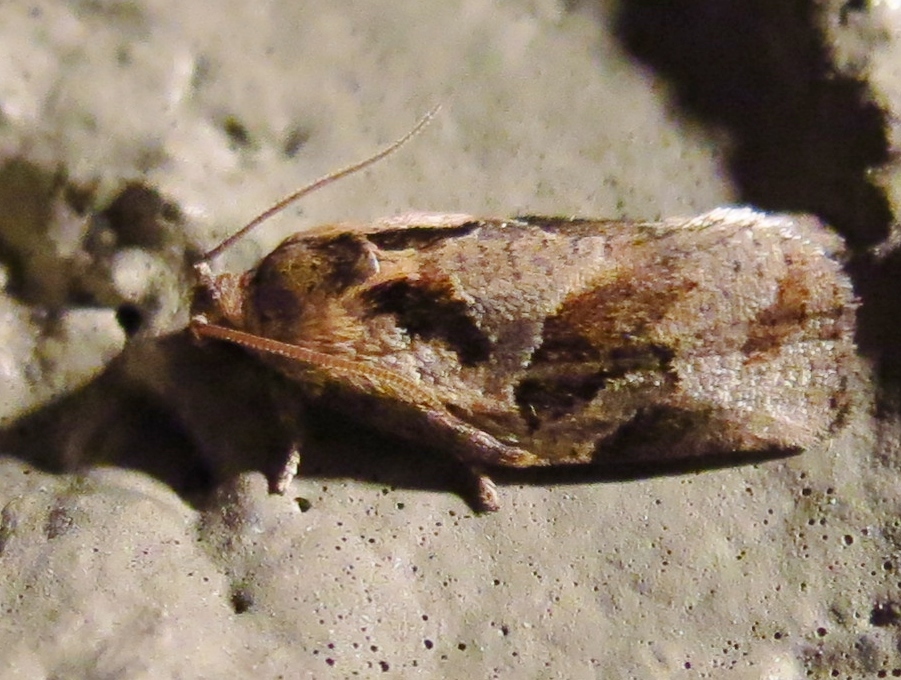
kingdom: Animalia
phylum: Arthropoda
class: Insecta
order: Lepidoptera
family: Tortricidae
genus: Archips
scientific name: Archips grisea
